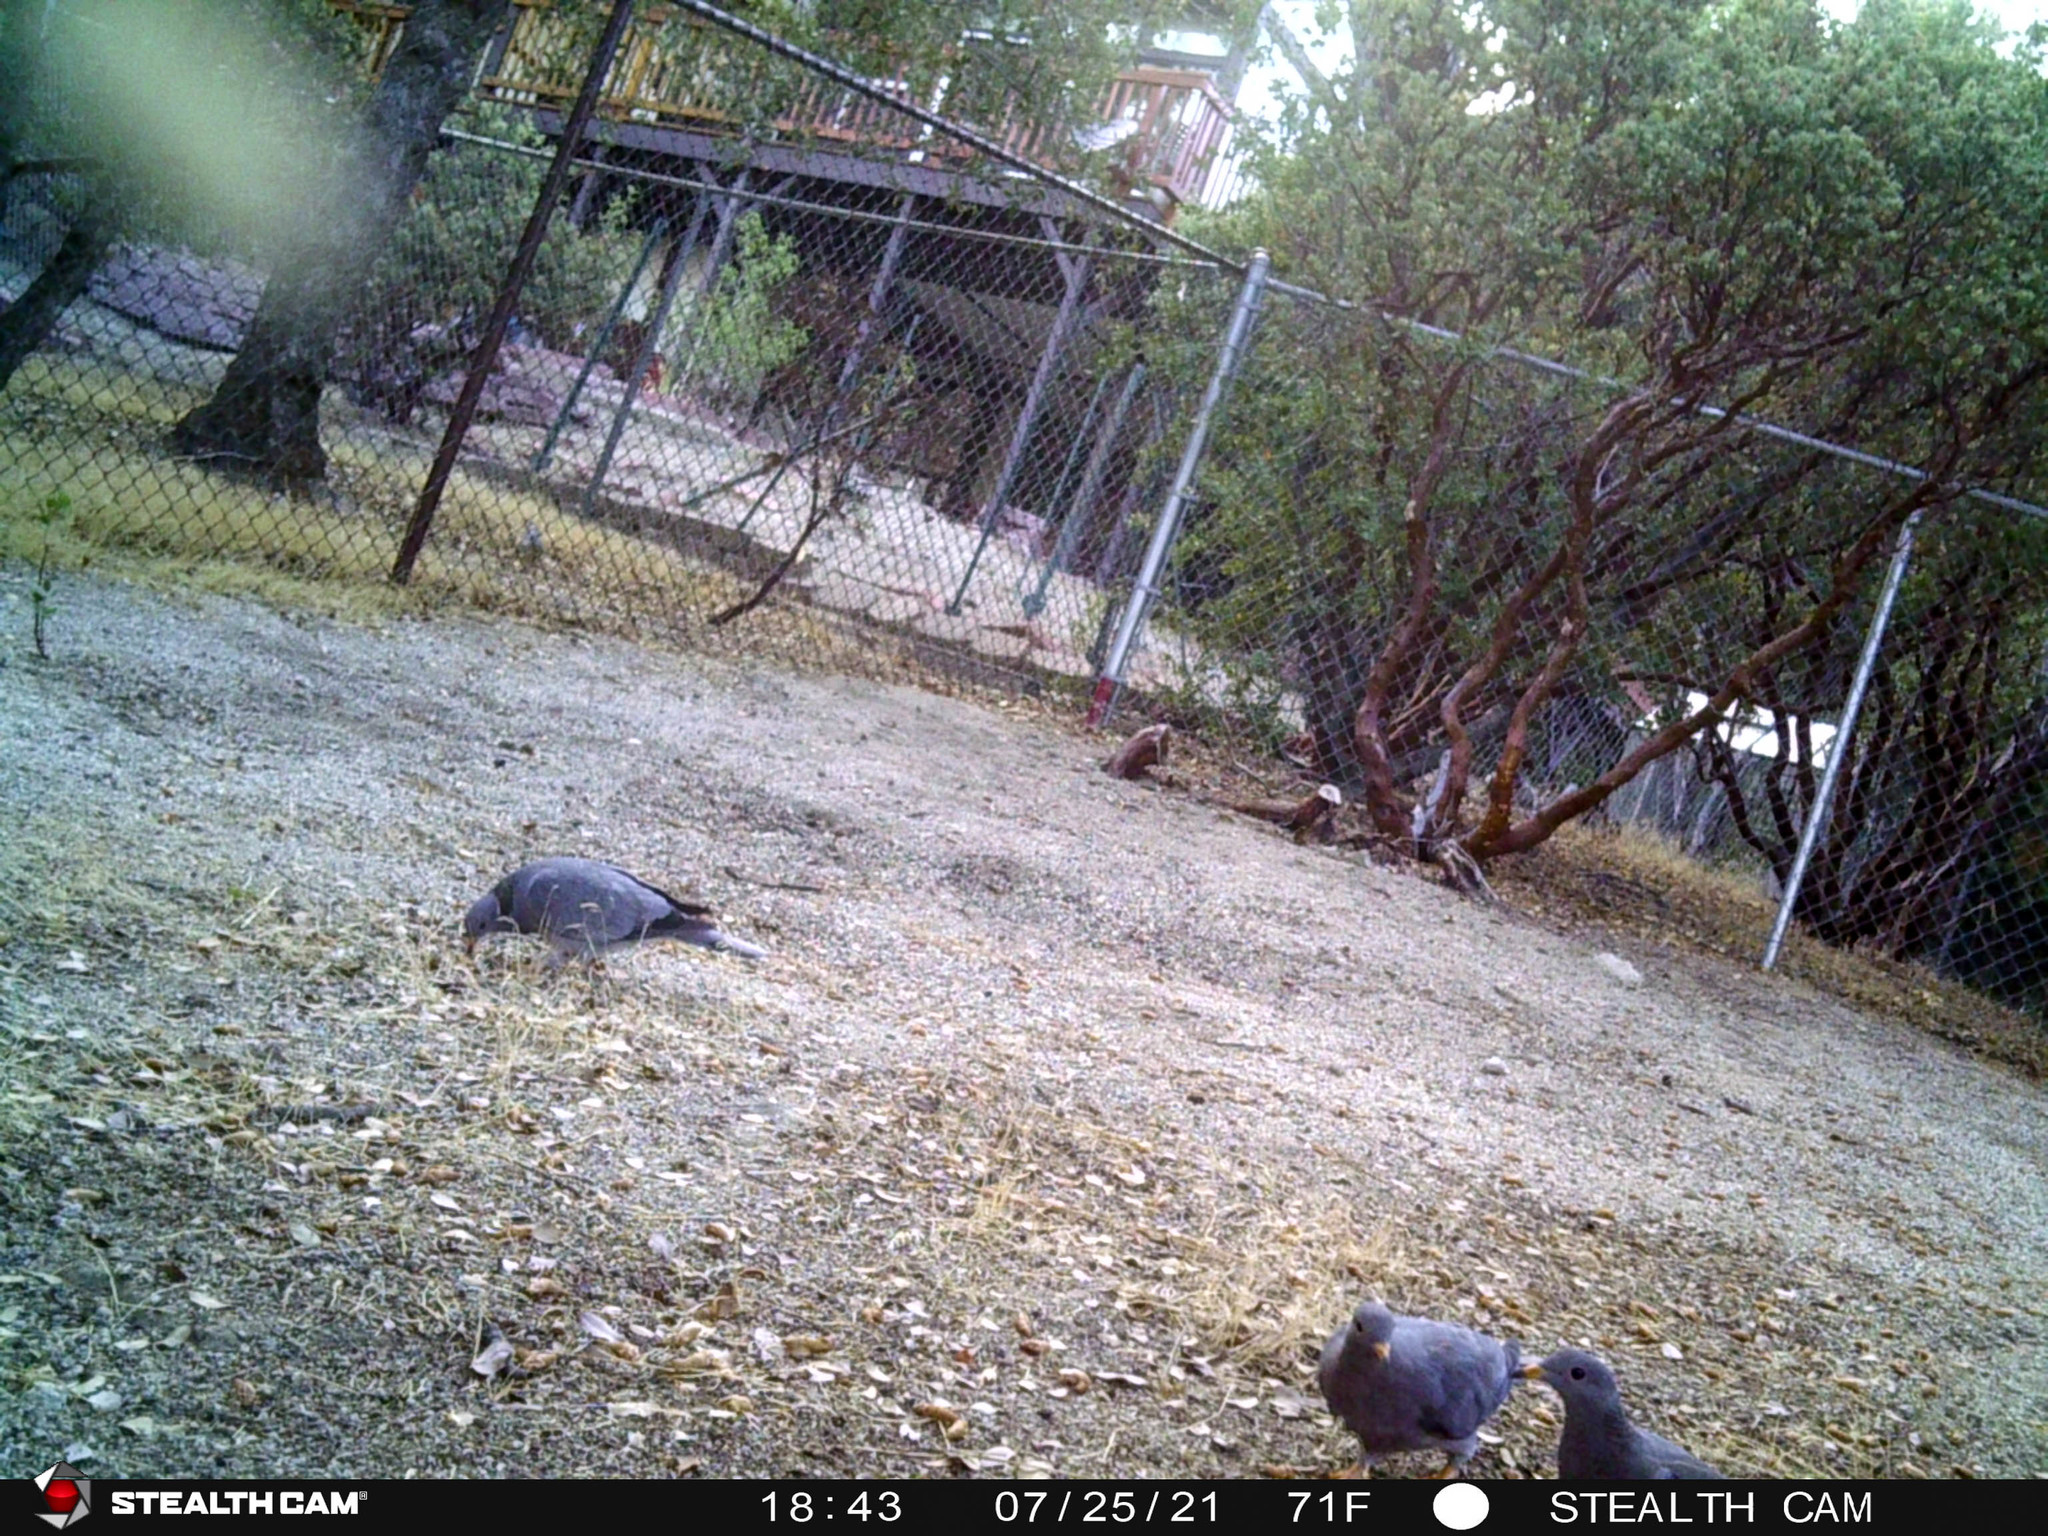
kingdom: Animalia
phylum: Chordata
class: Aves
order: Columbiformes
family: Columbidae
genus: Patagioenas
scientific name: Patagioenas fasciata
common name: Band-tailed pigeon
